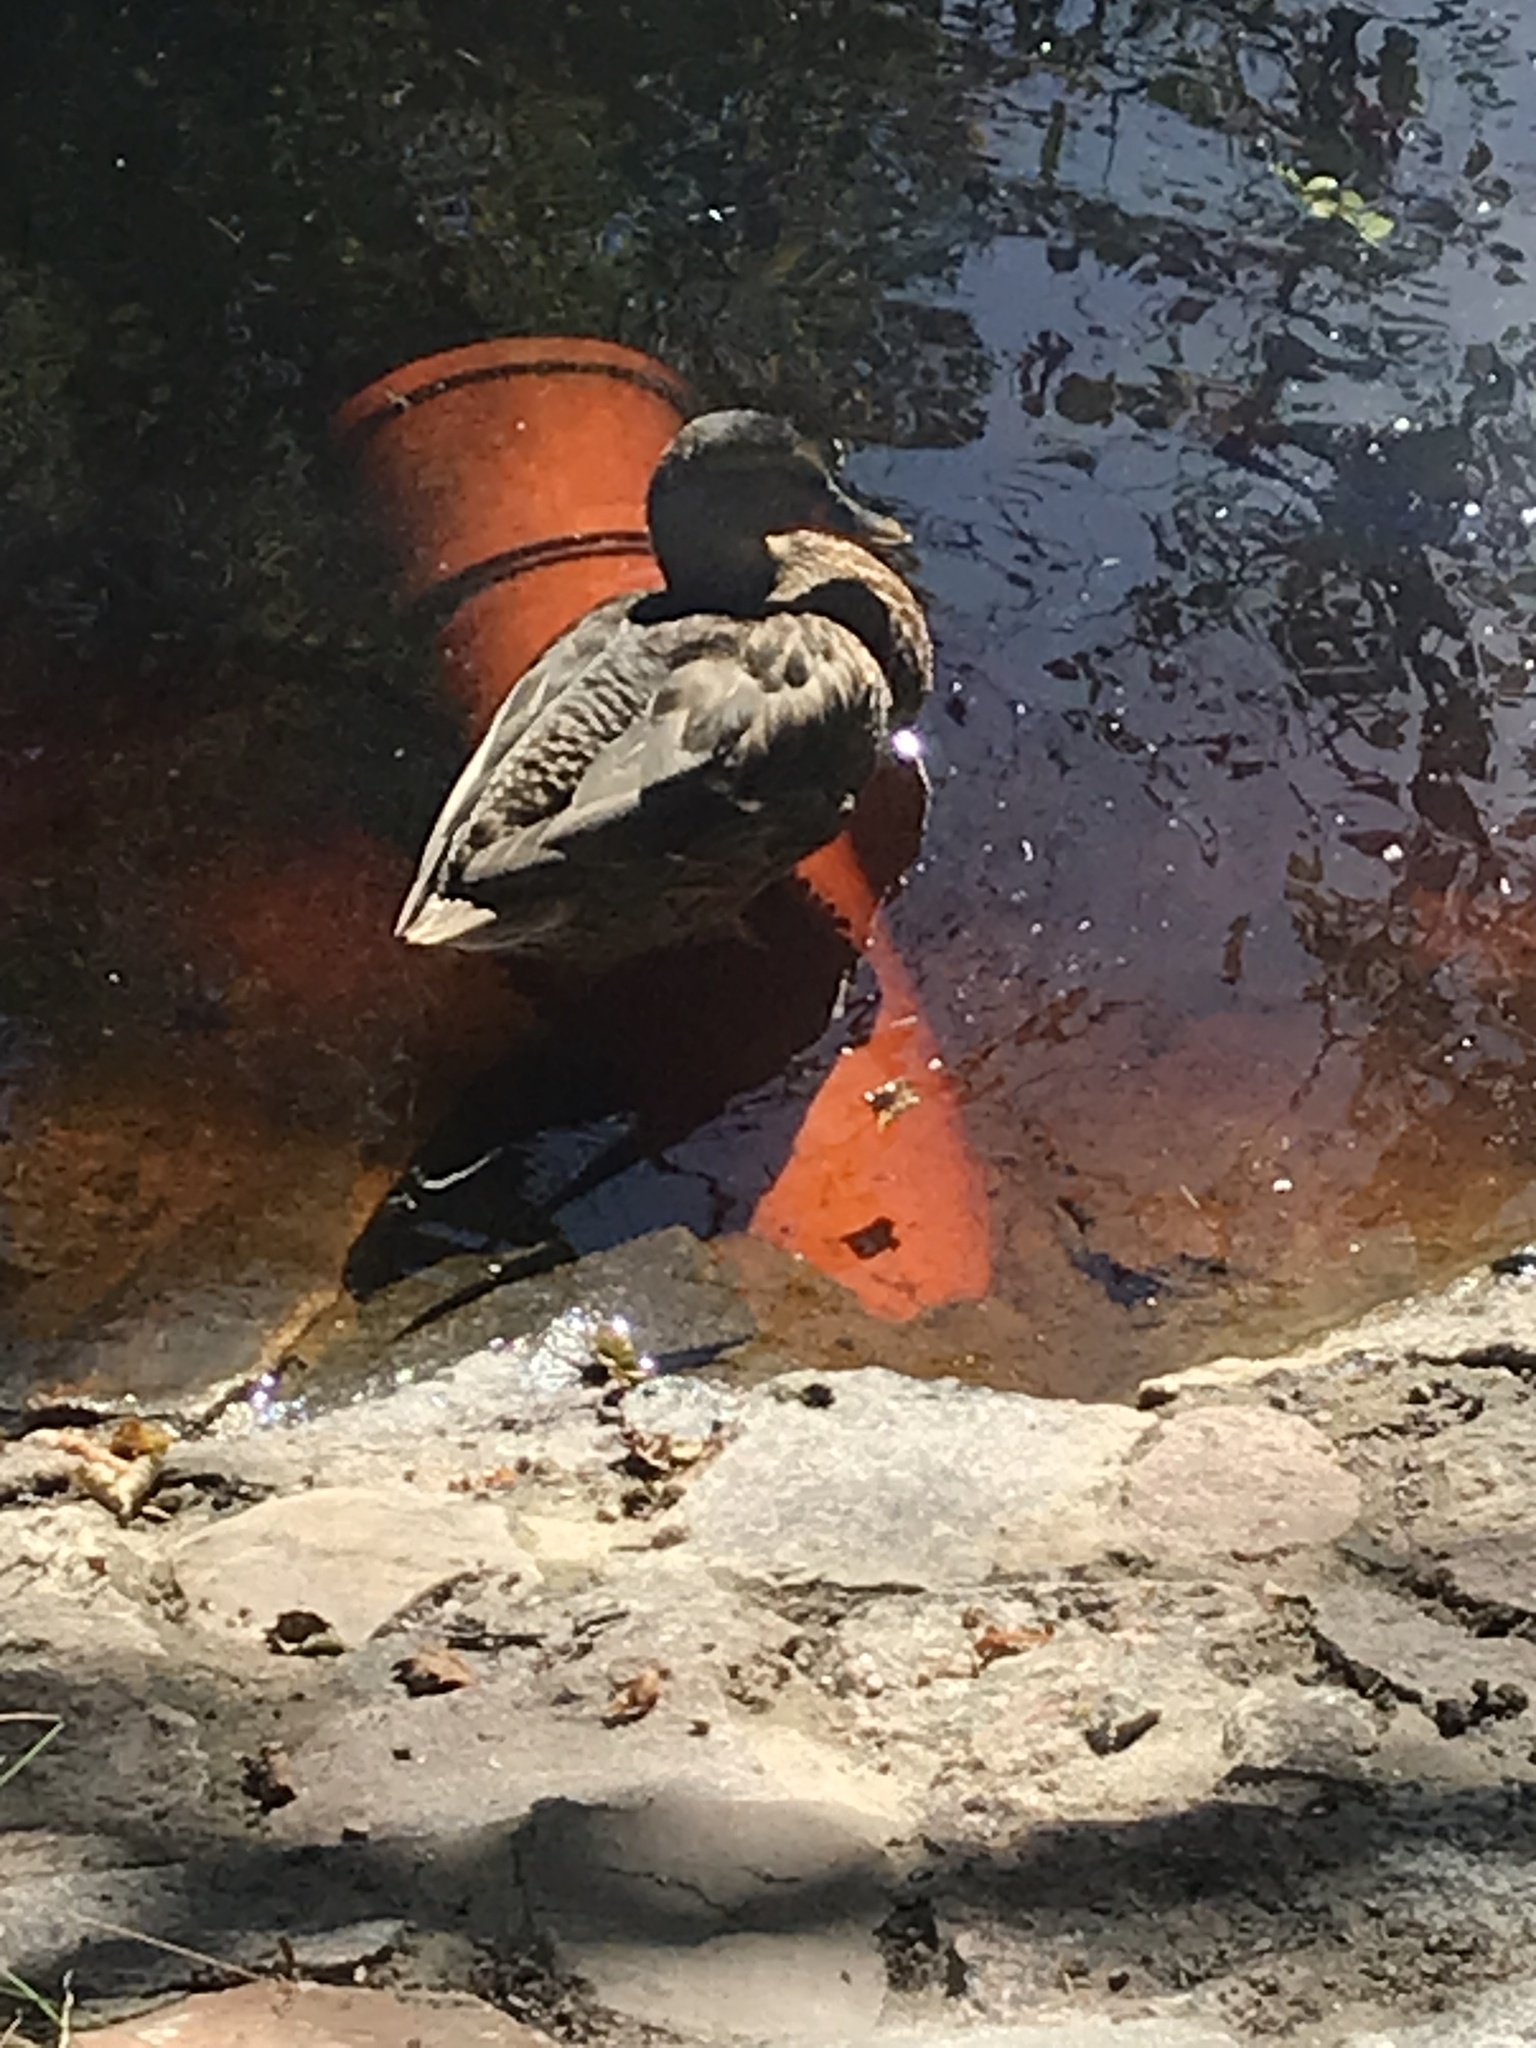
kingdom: Animalia
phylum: Chordata
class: Aves
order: Anseriformes
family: Anatidae
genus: Anas
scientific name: Anas platyrhynchos
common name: Mallard
